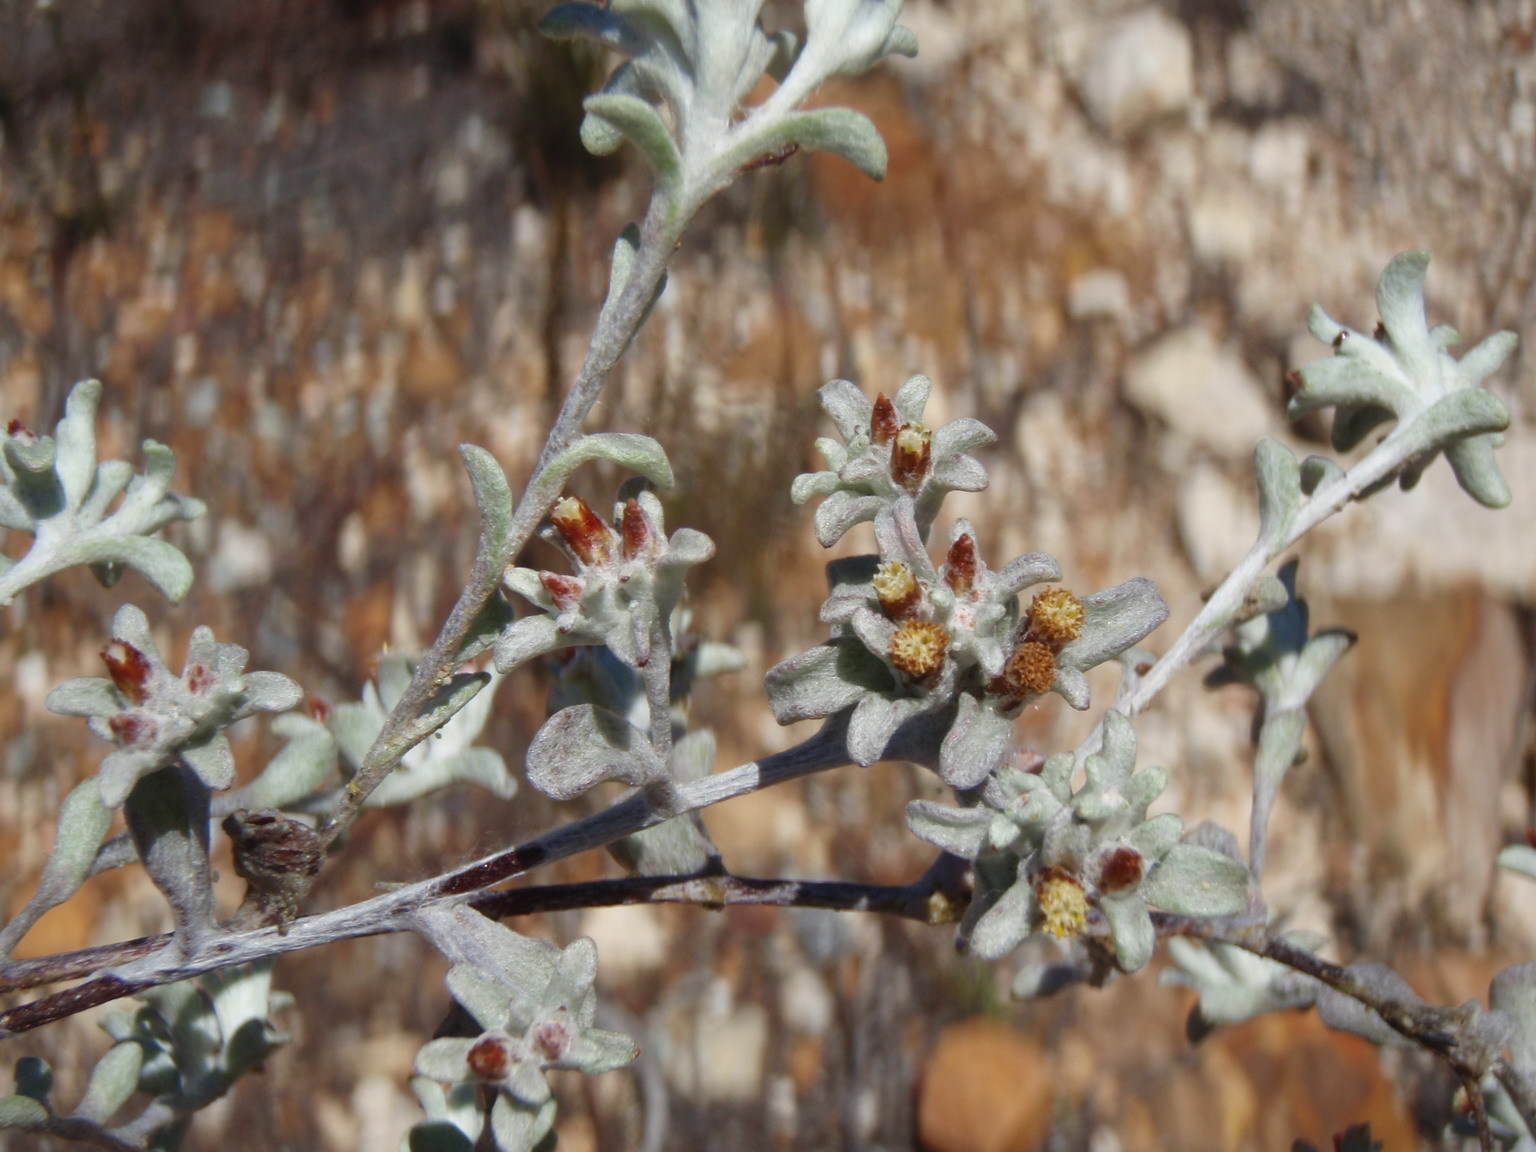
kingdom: Plantae
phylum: Tracheophyta
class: Magnoliopsida
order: Asterales
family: Asteraceae
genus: Helichrysum
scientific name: Helichrysum tinctum
